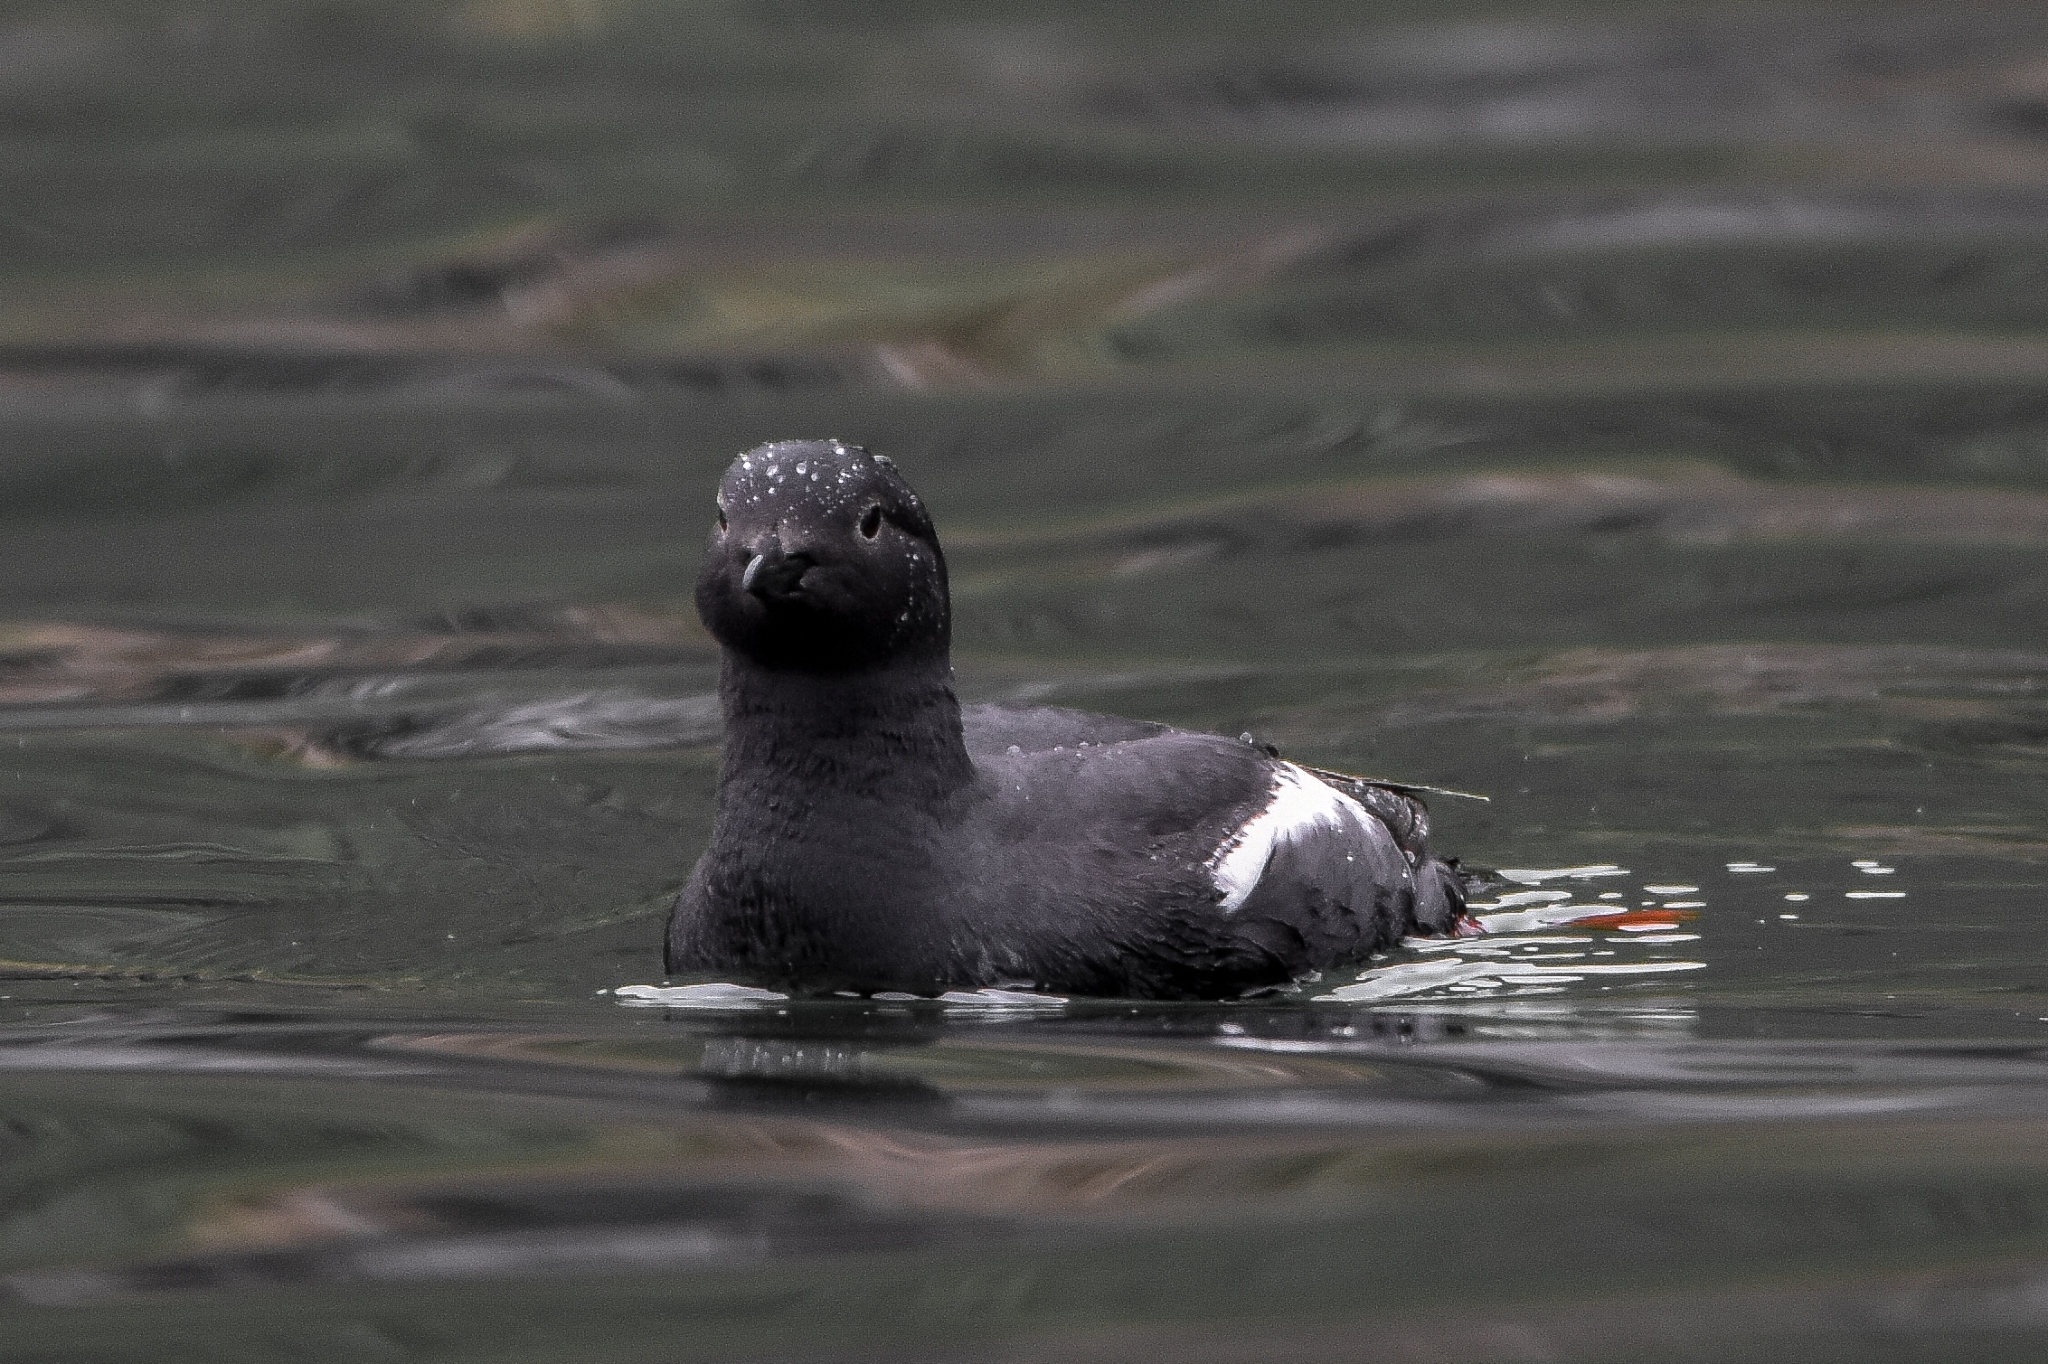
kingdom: Animalia
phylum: Chordata
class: Aves
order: Charadriiformes
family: Alcidae
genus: Cepphus
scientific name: Cepphus columba
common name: Pigeon guillemot
